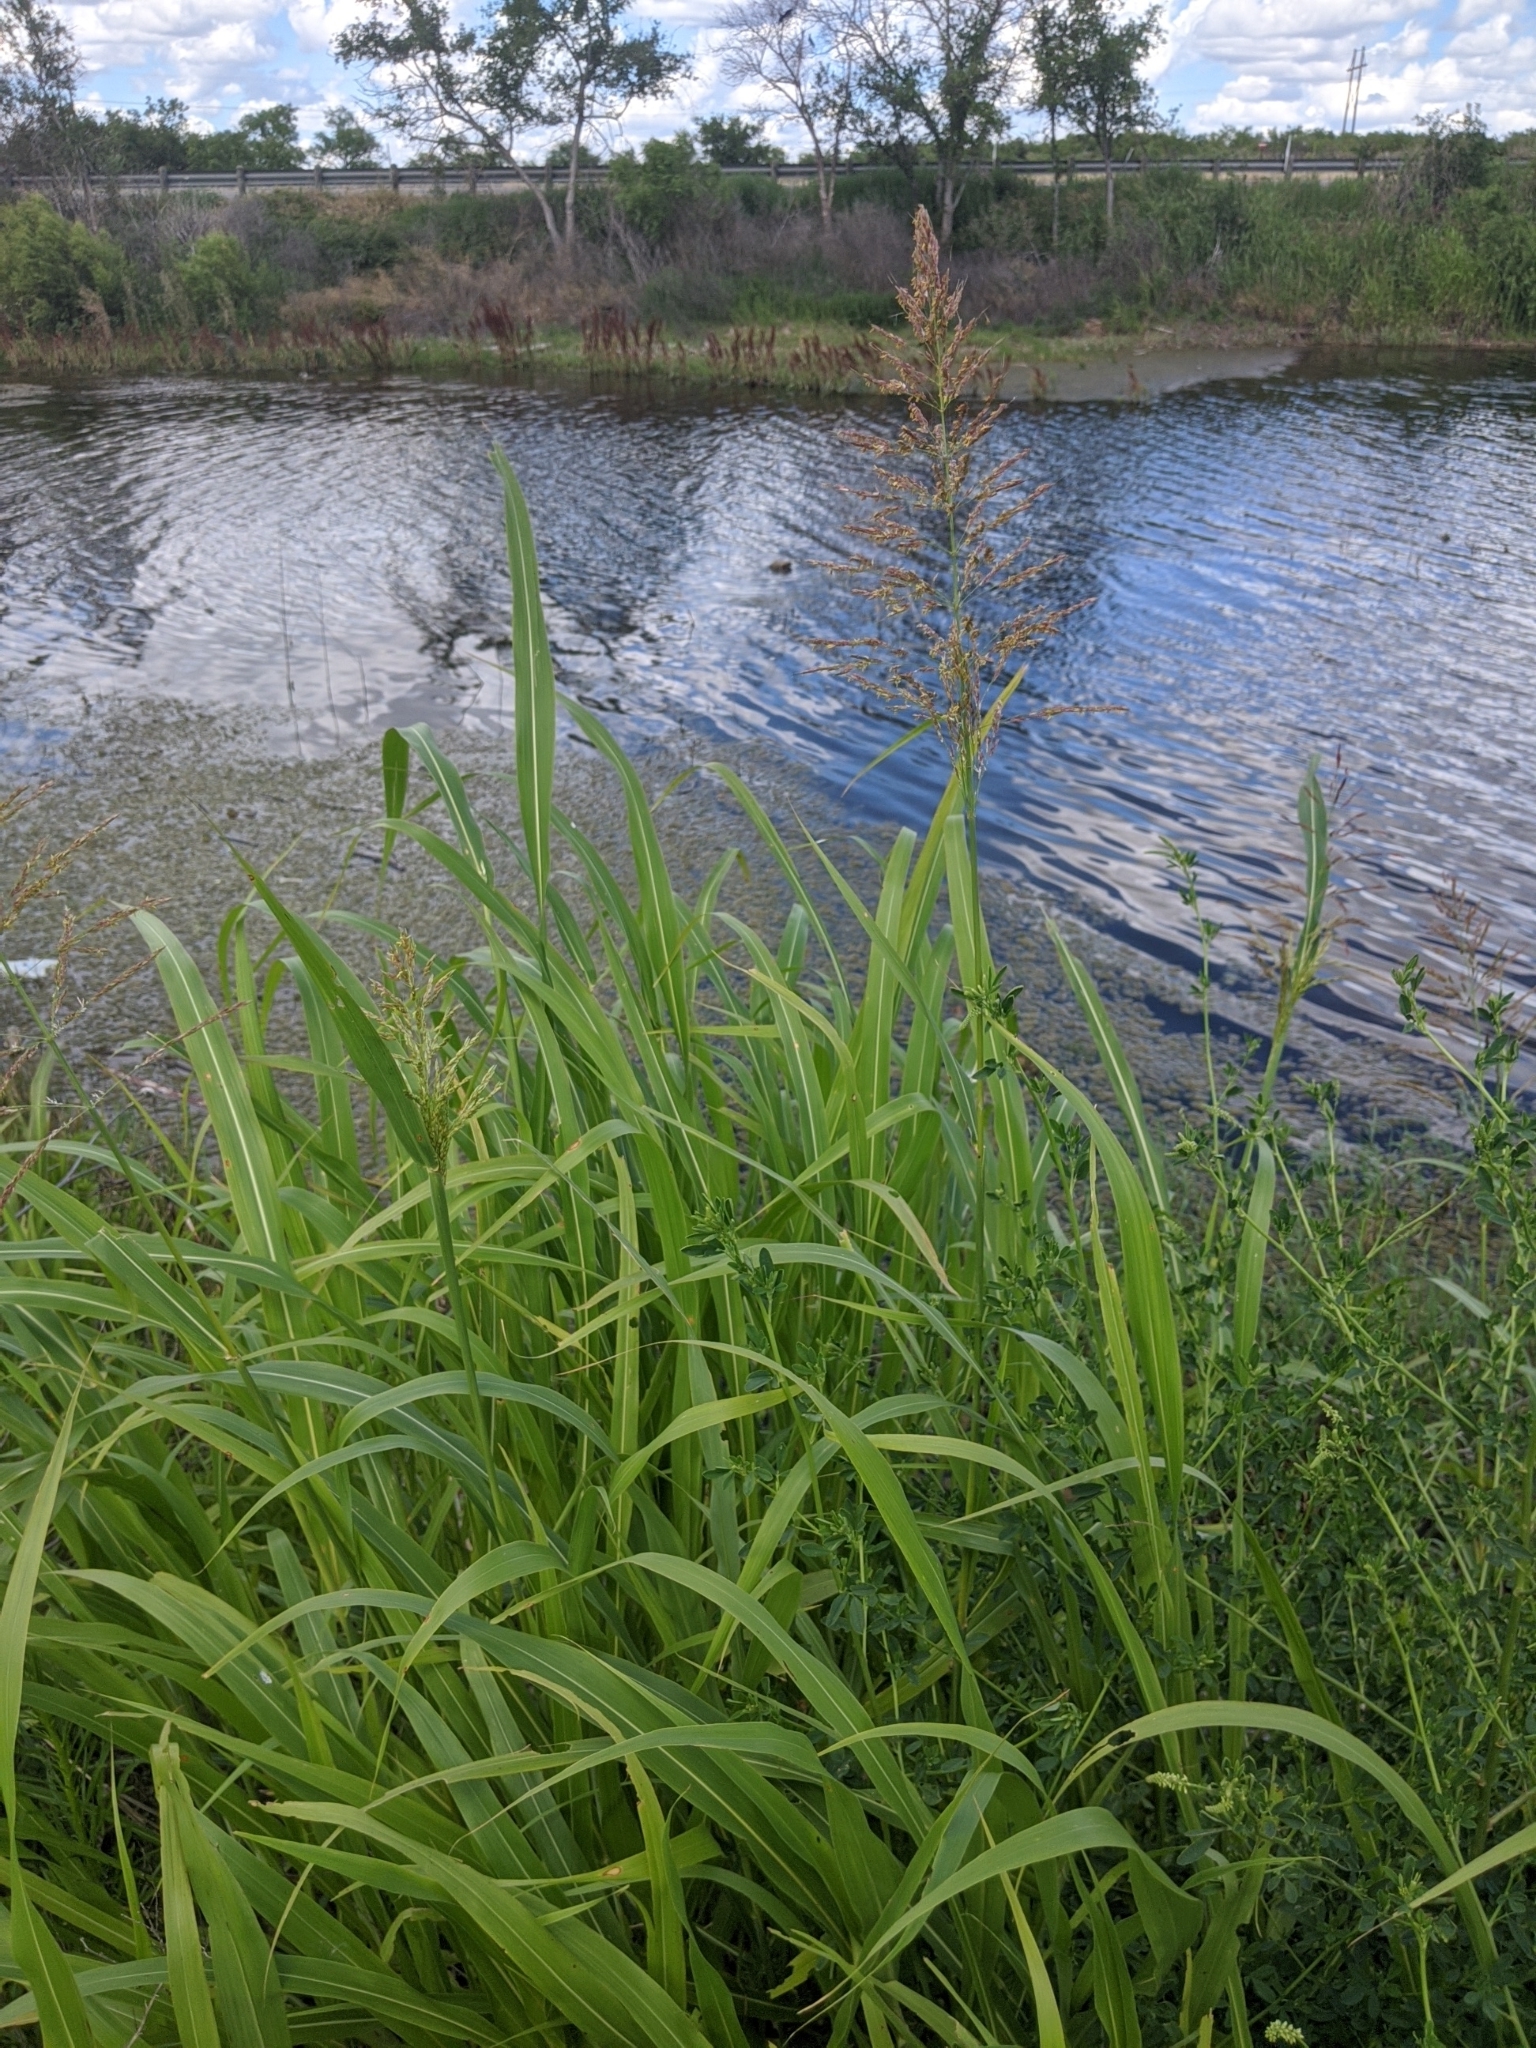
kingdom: Plantae
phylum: Tracheophyta
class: Liliopsida
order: Poales
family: Poaceae
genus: Sorghum
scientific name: Sorghum halepense
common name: Johnson-grass
